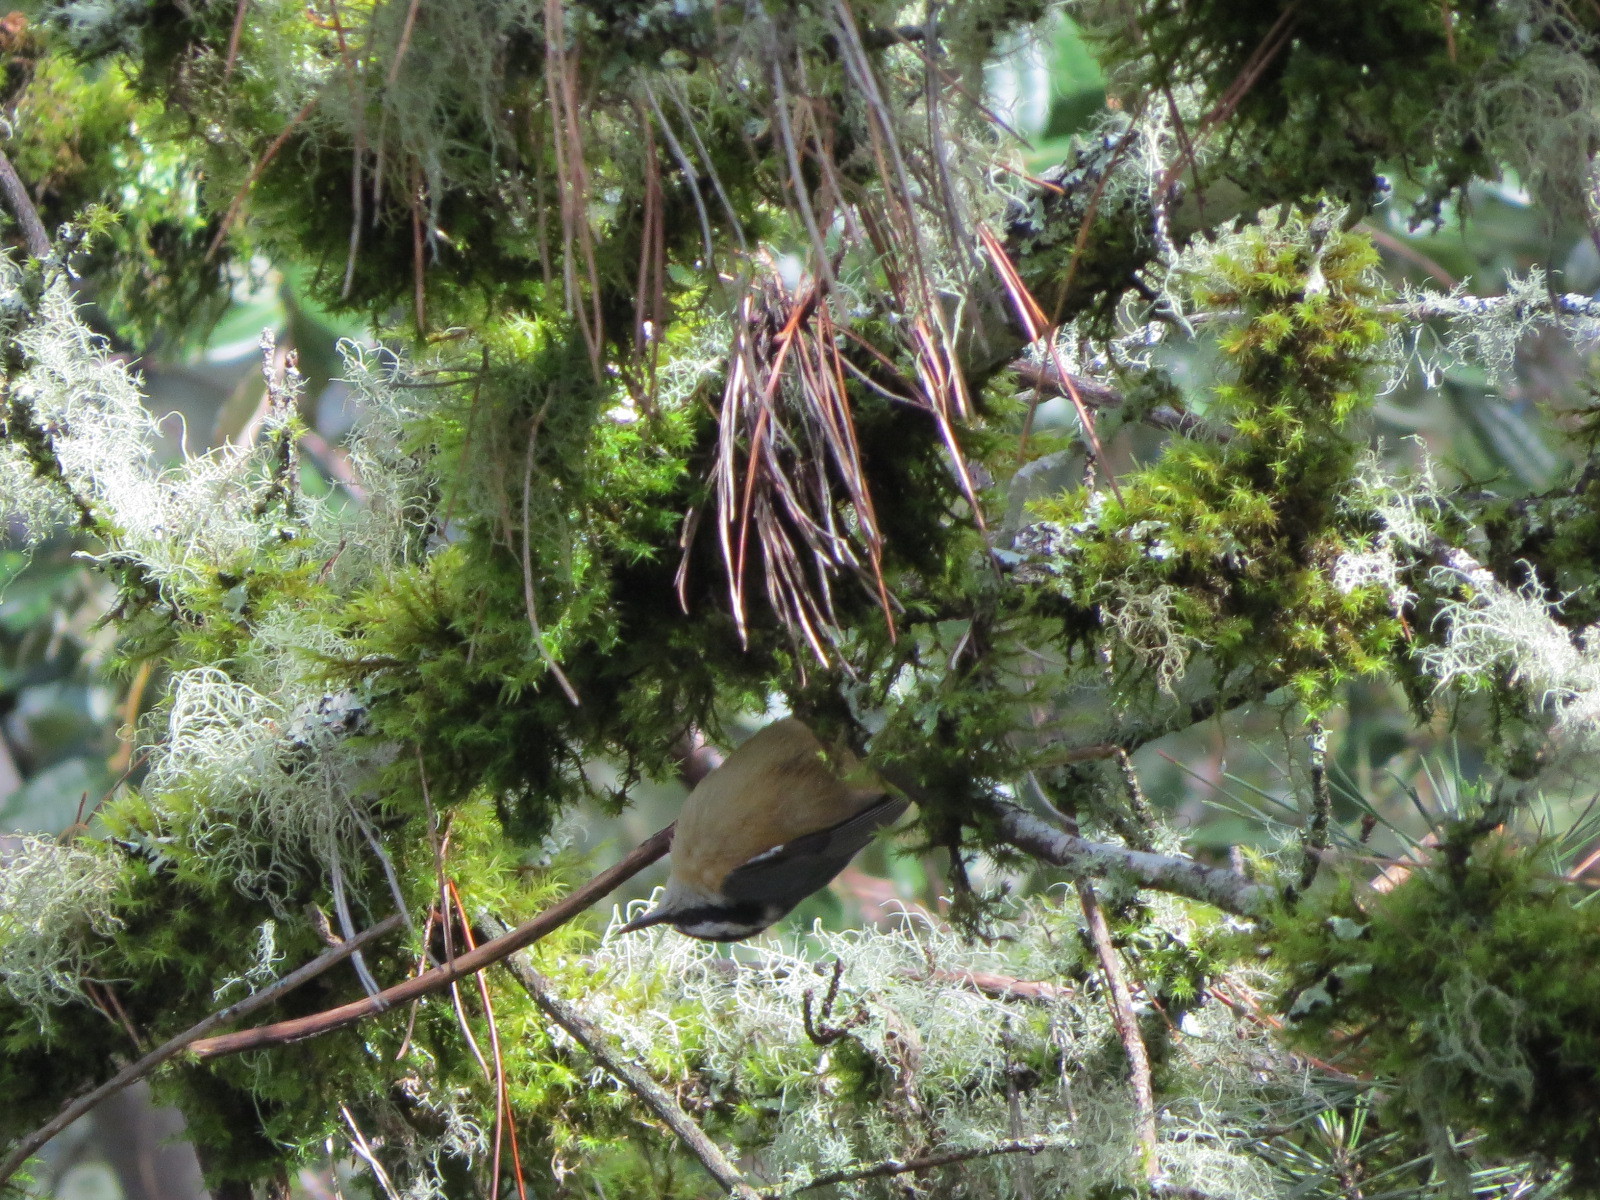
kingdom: Animalia
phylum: Chordata
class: Aves
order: Passeriformes
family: Sittidae
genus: Sitta
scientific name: Sitta canadensis
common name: Red-breasted nuthatch
